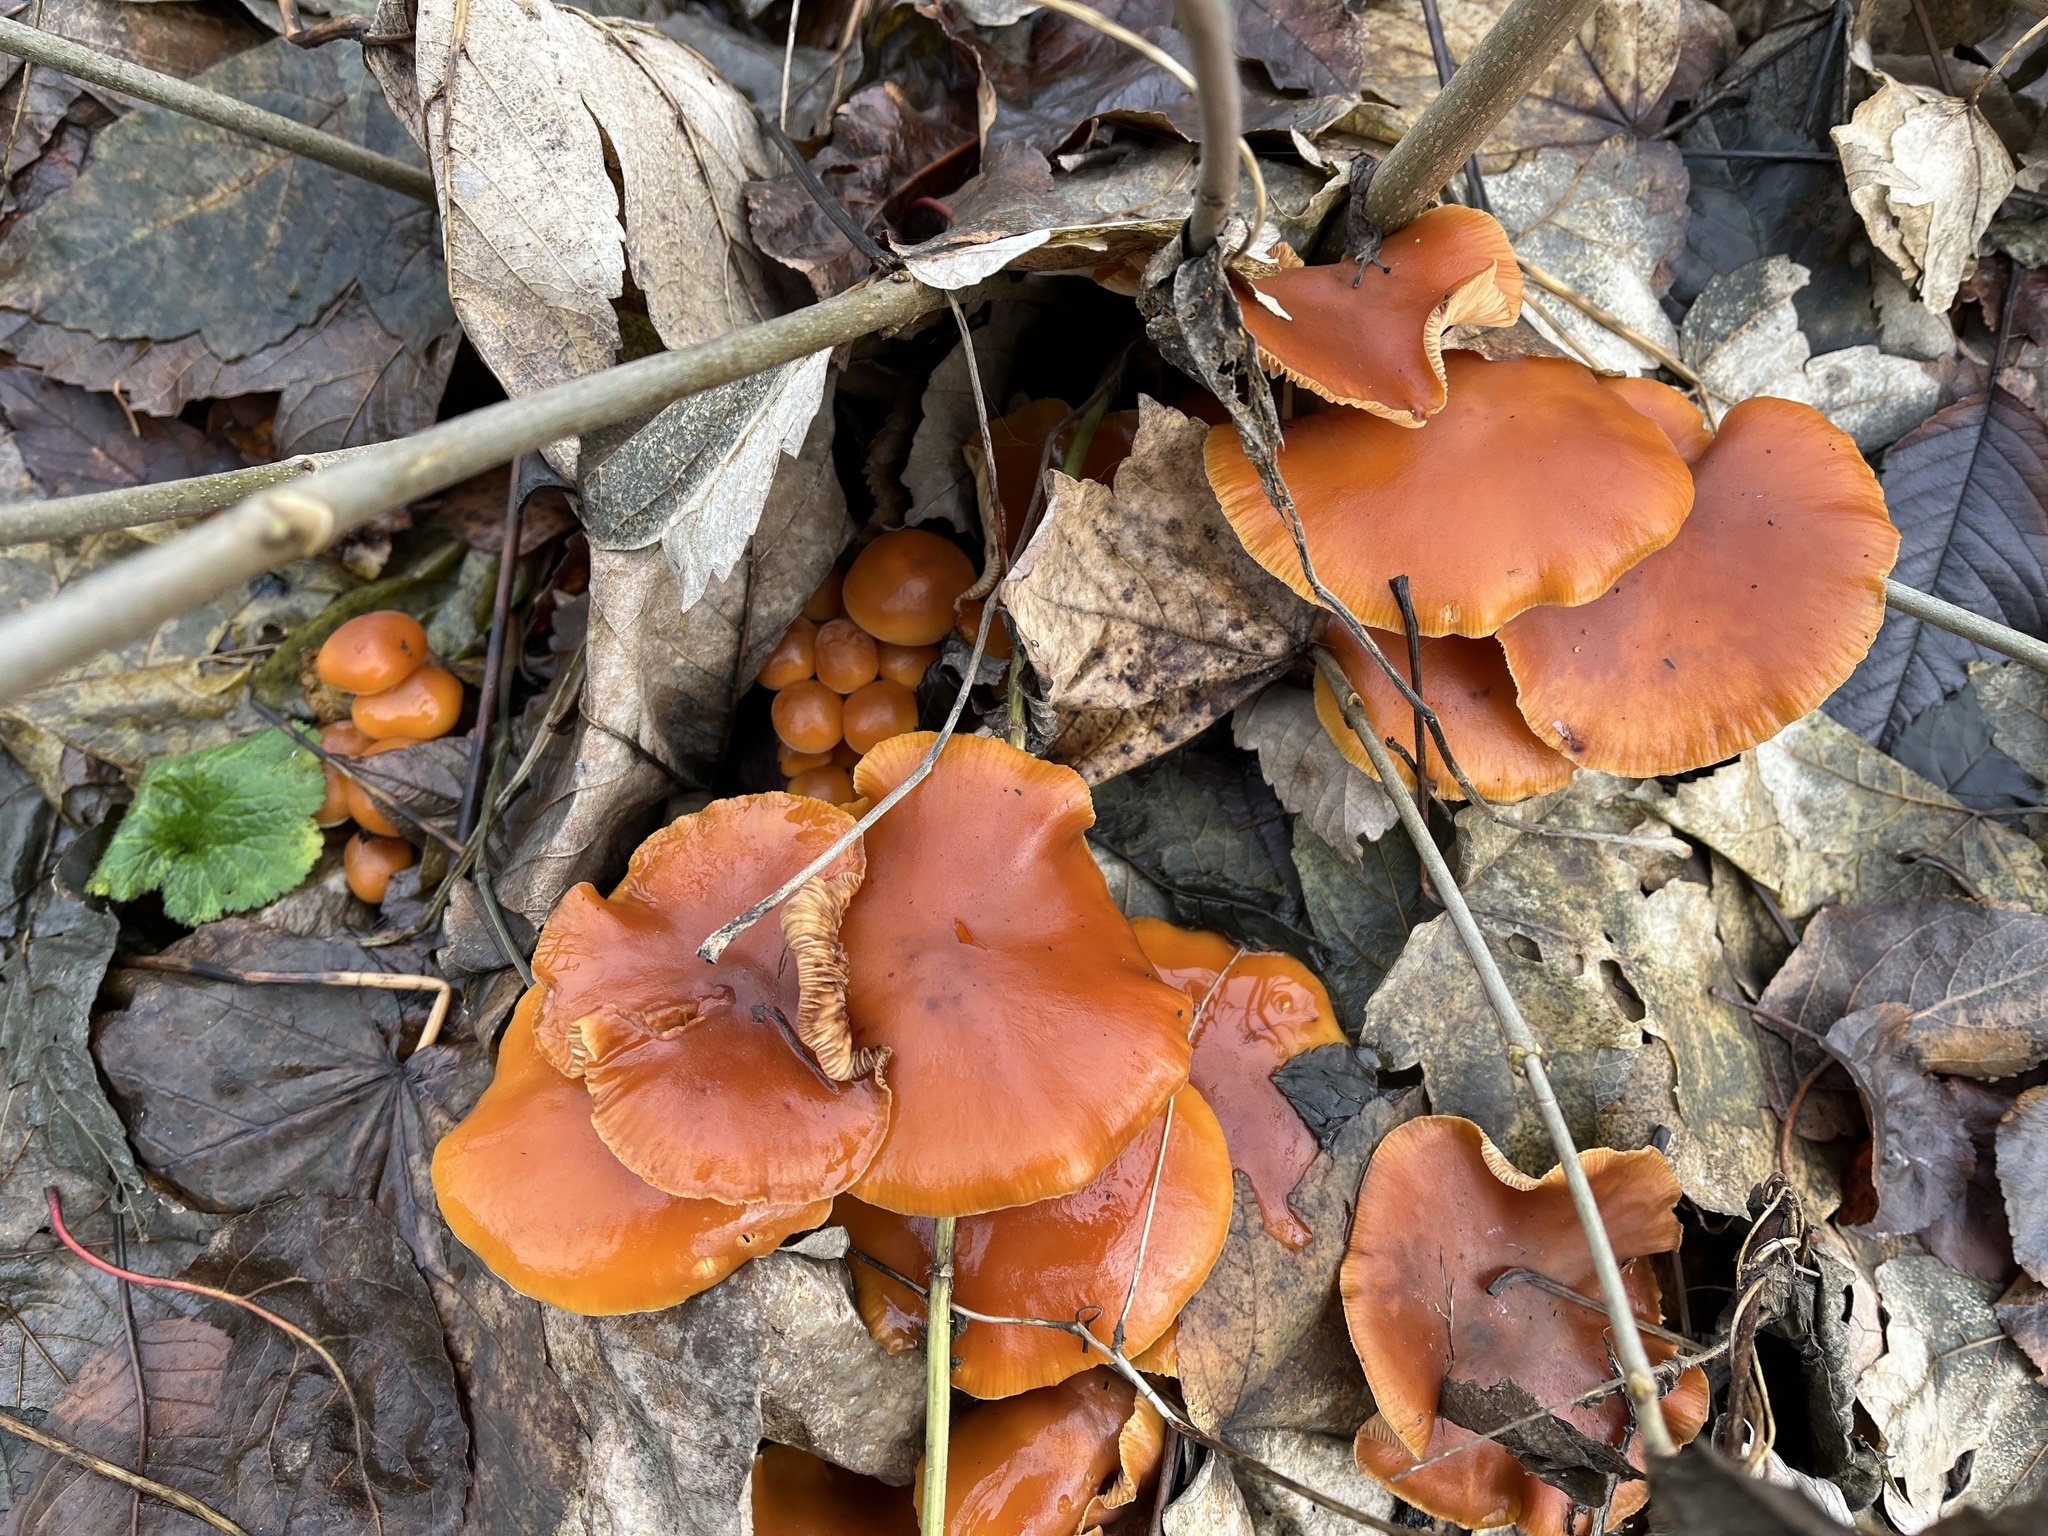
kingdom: Fungi
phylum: Basidiomycota
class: Agaricomycetes
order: Agaricales
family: Physalacriaceae
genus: Flammulina
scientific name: Flammulina
